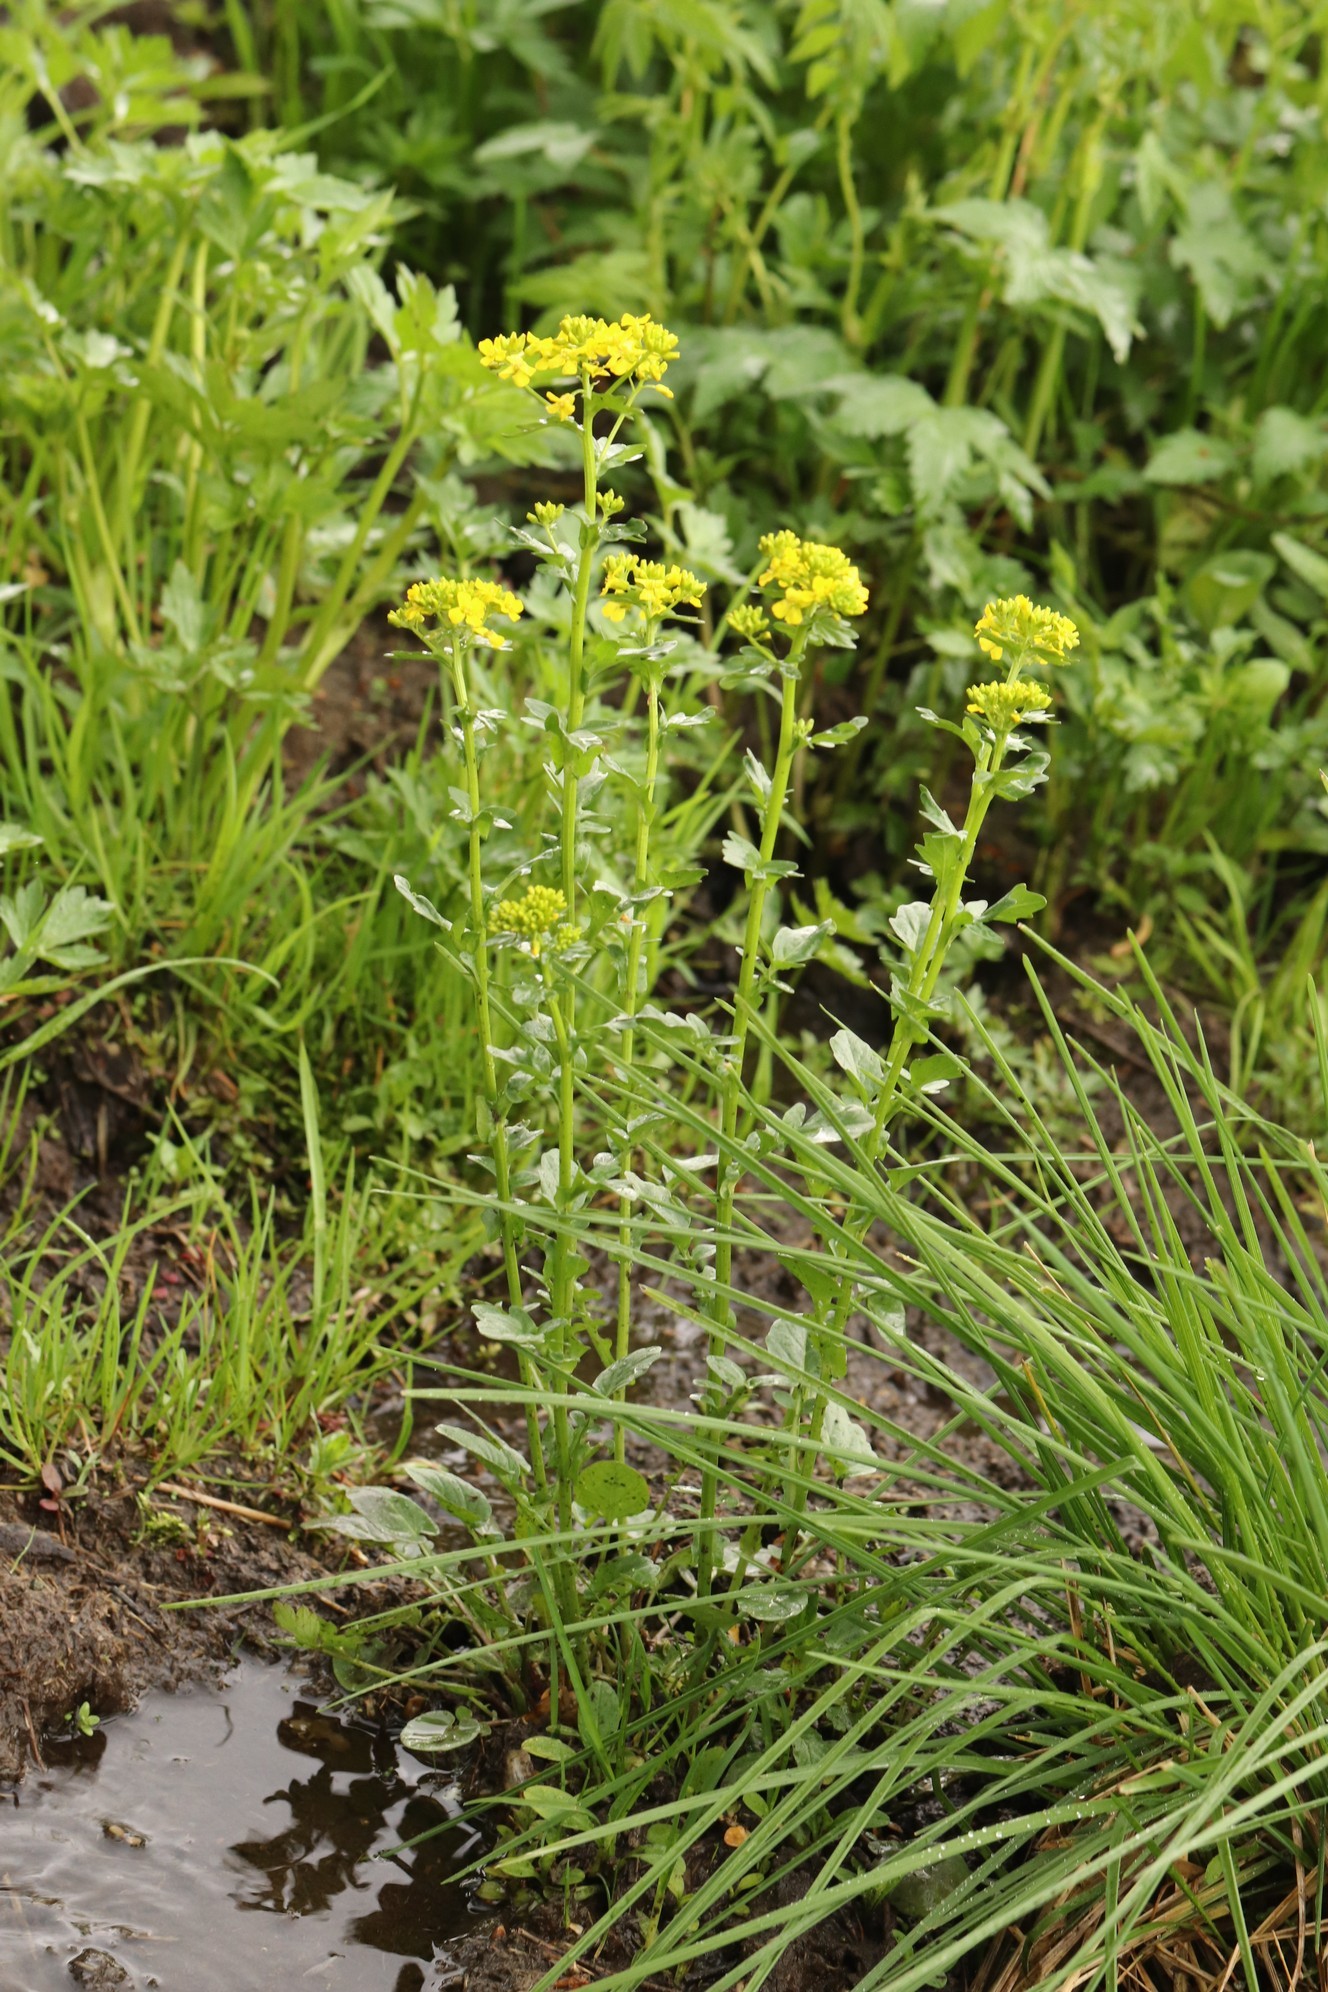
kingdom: Plantae
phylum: Tracheophyta
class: Magnoliopsida
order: Brassicales
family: Brassicaceae
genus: Barbarea
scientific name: Barbarea vulgaris
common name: Cressy-greens
